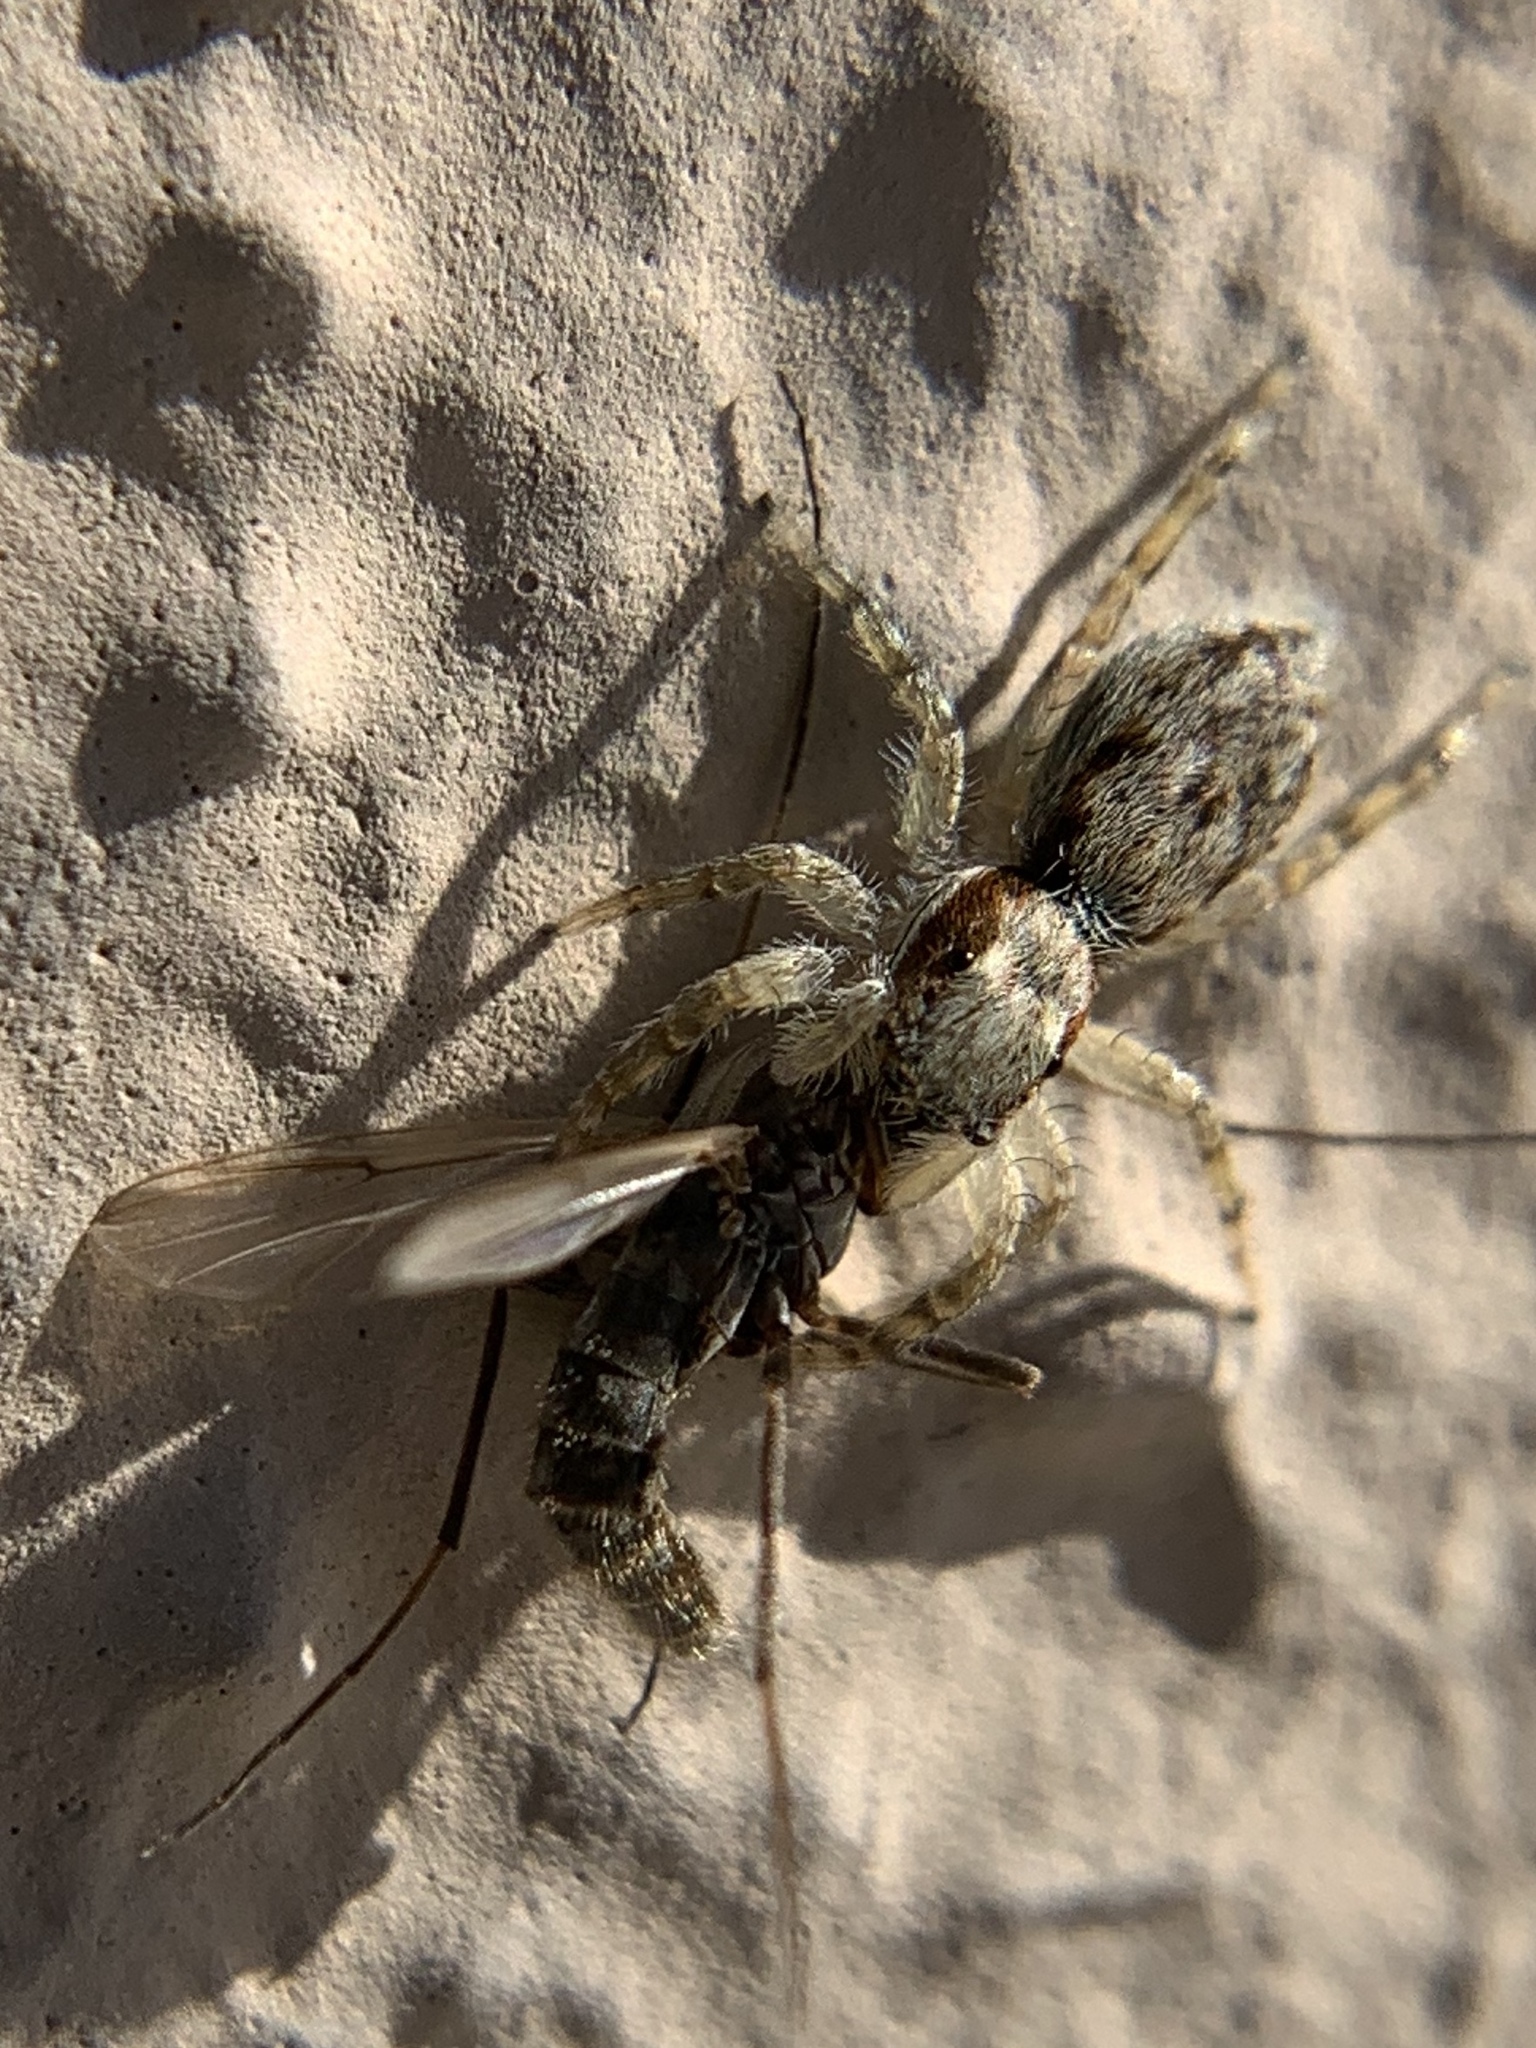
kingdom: Animalia
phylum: Arthropoda
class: Arachnida
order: Araneae
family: Salticidae
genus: Menemerus
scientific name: Menemerus bivittatus
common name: Gray wall jumper
